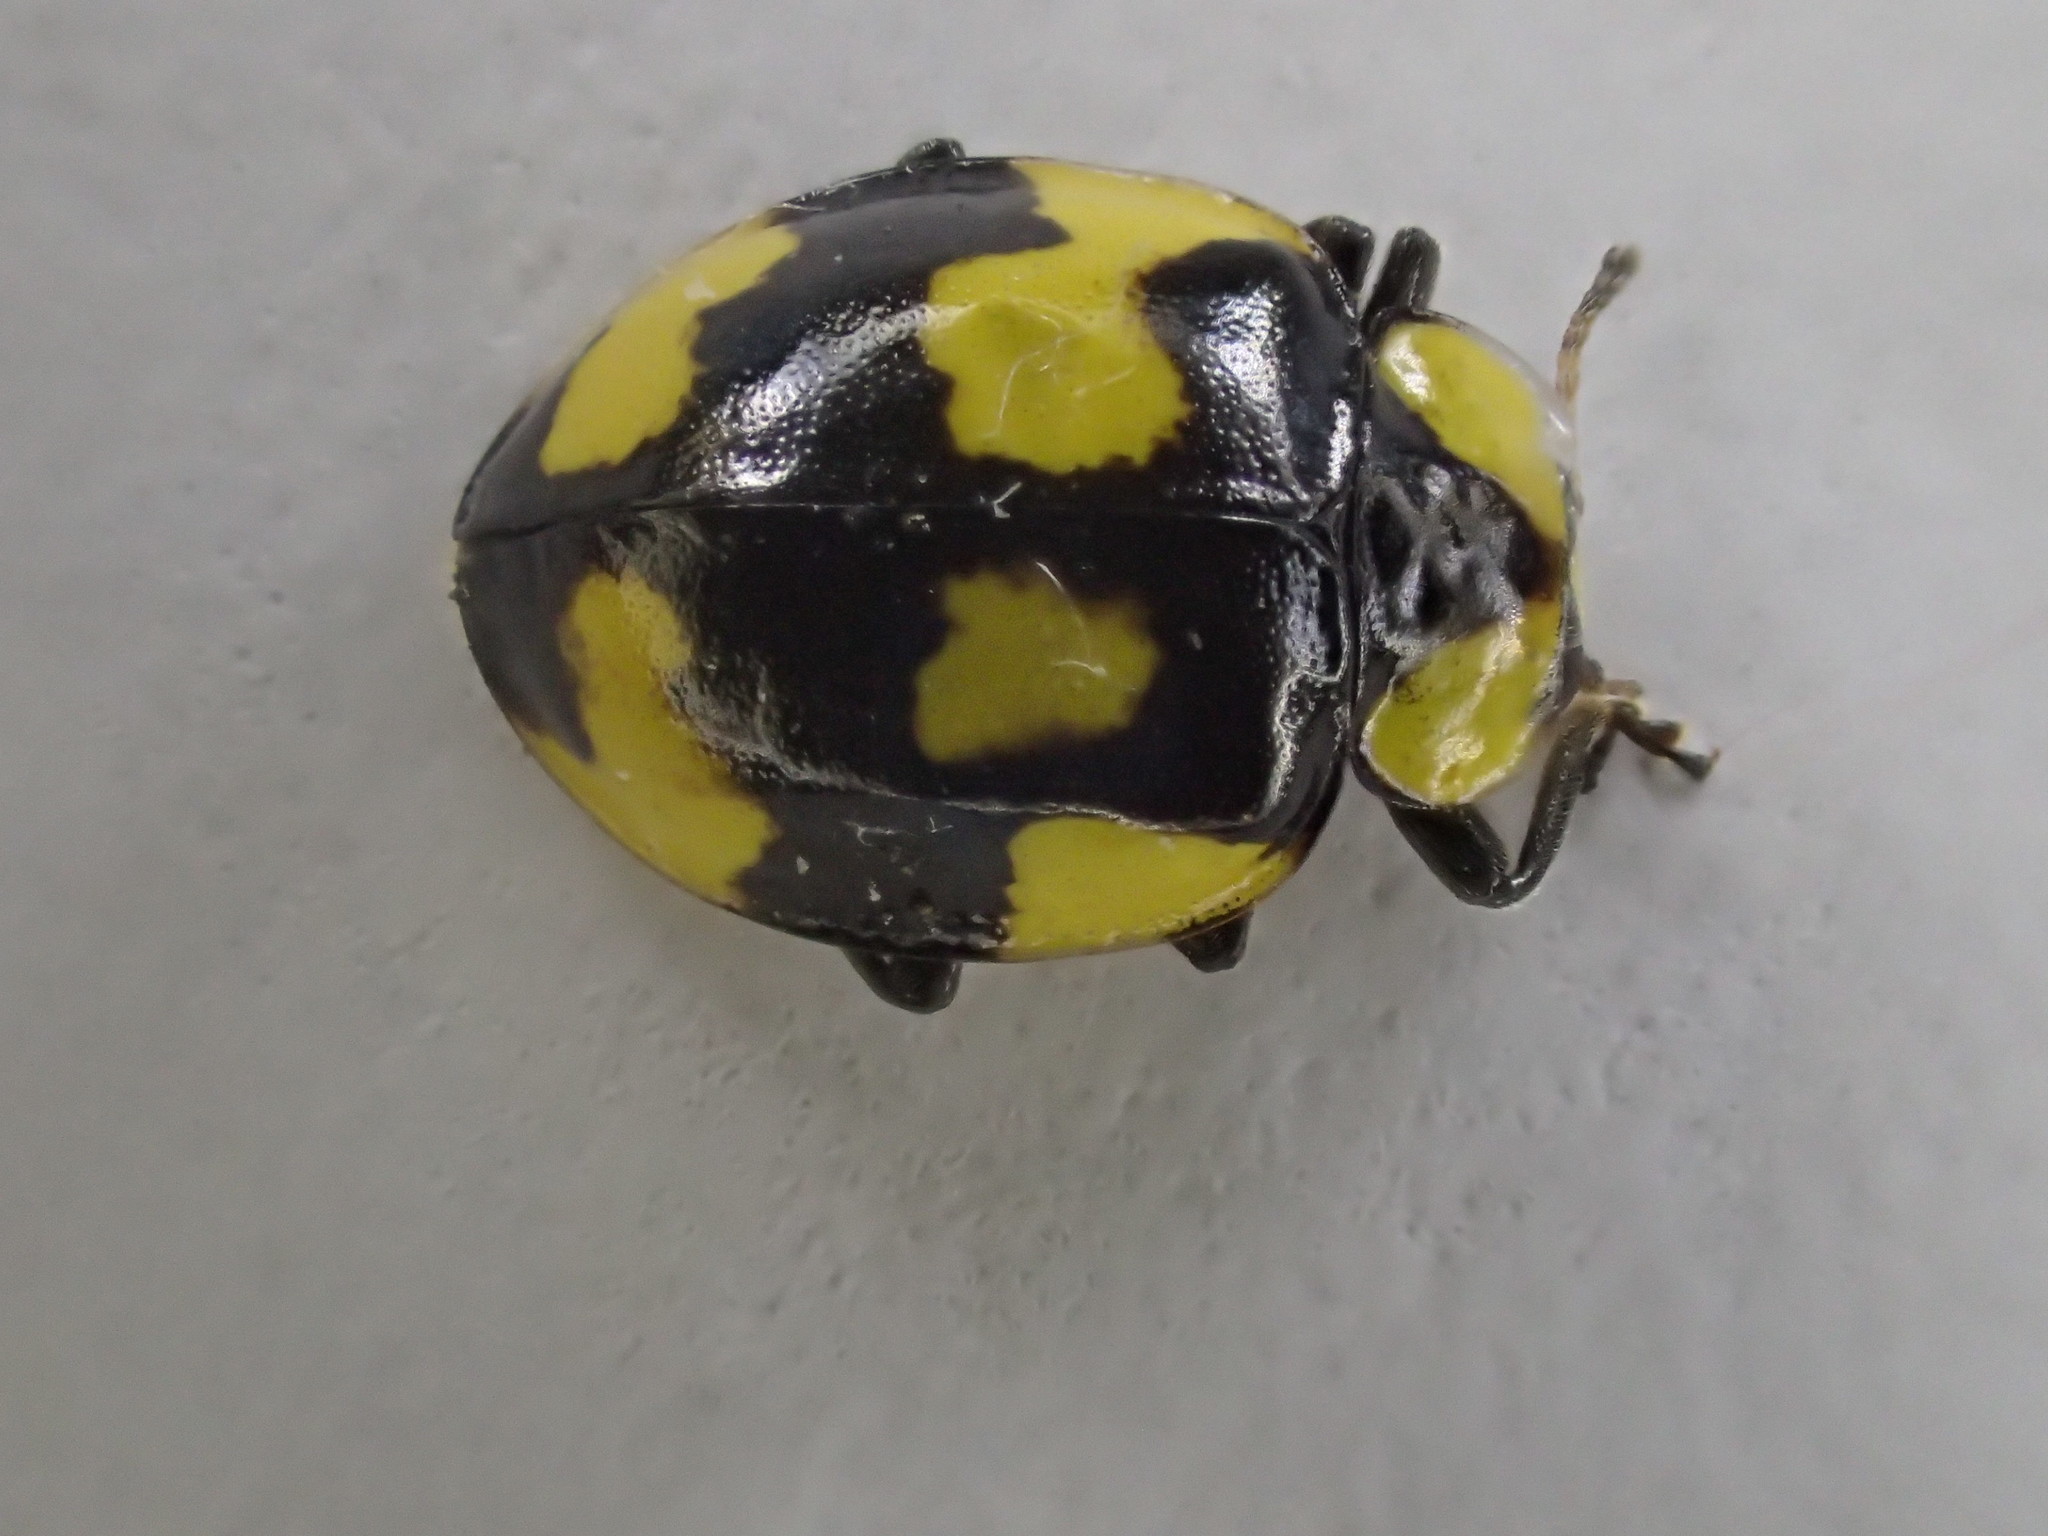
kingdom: Animalia
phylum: Arthropoda
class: Insecta
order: Coleoptera
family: Coccinellidae
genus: Illeis
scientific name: Illeis galbula
